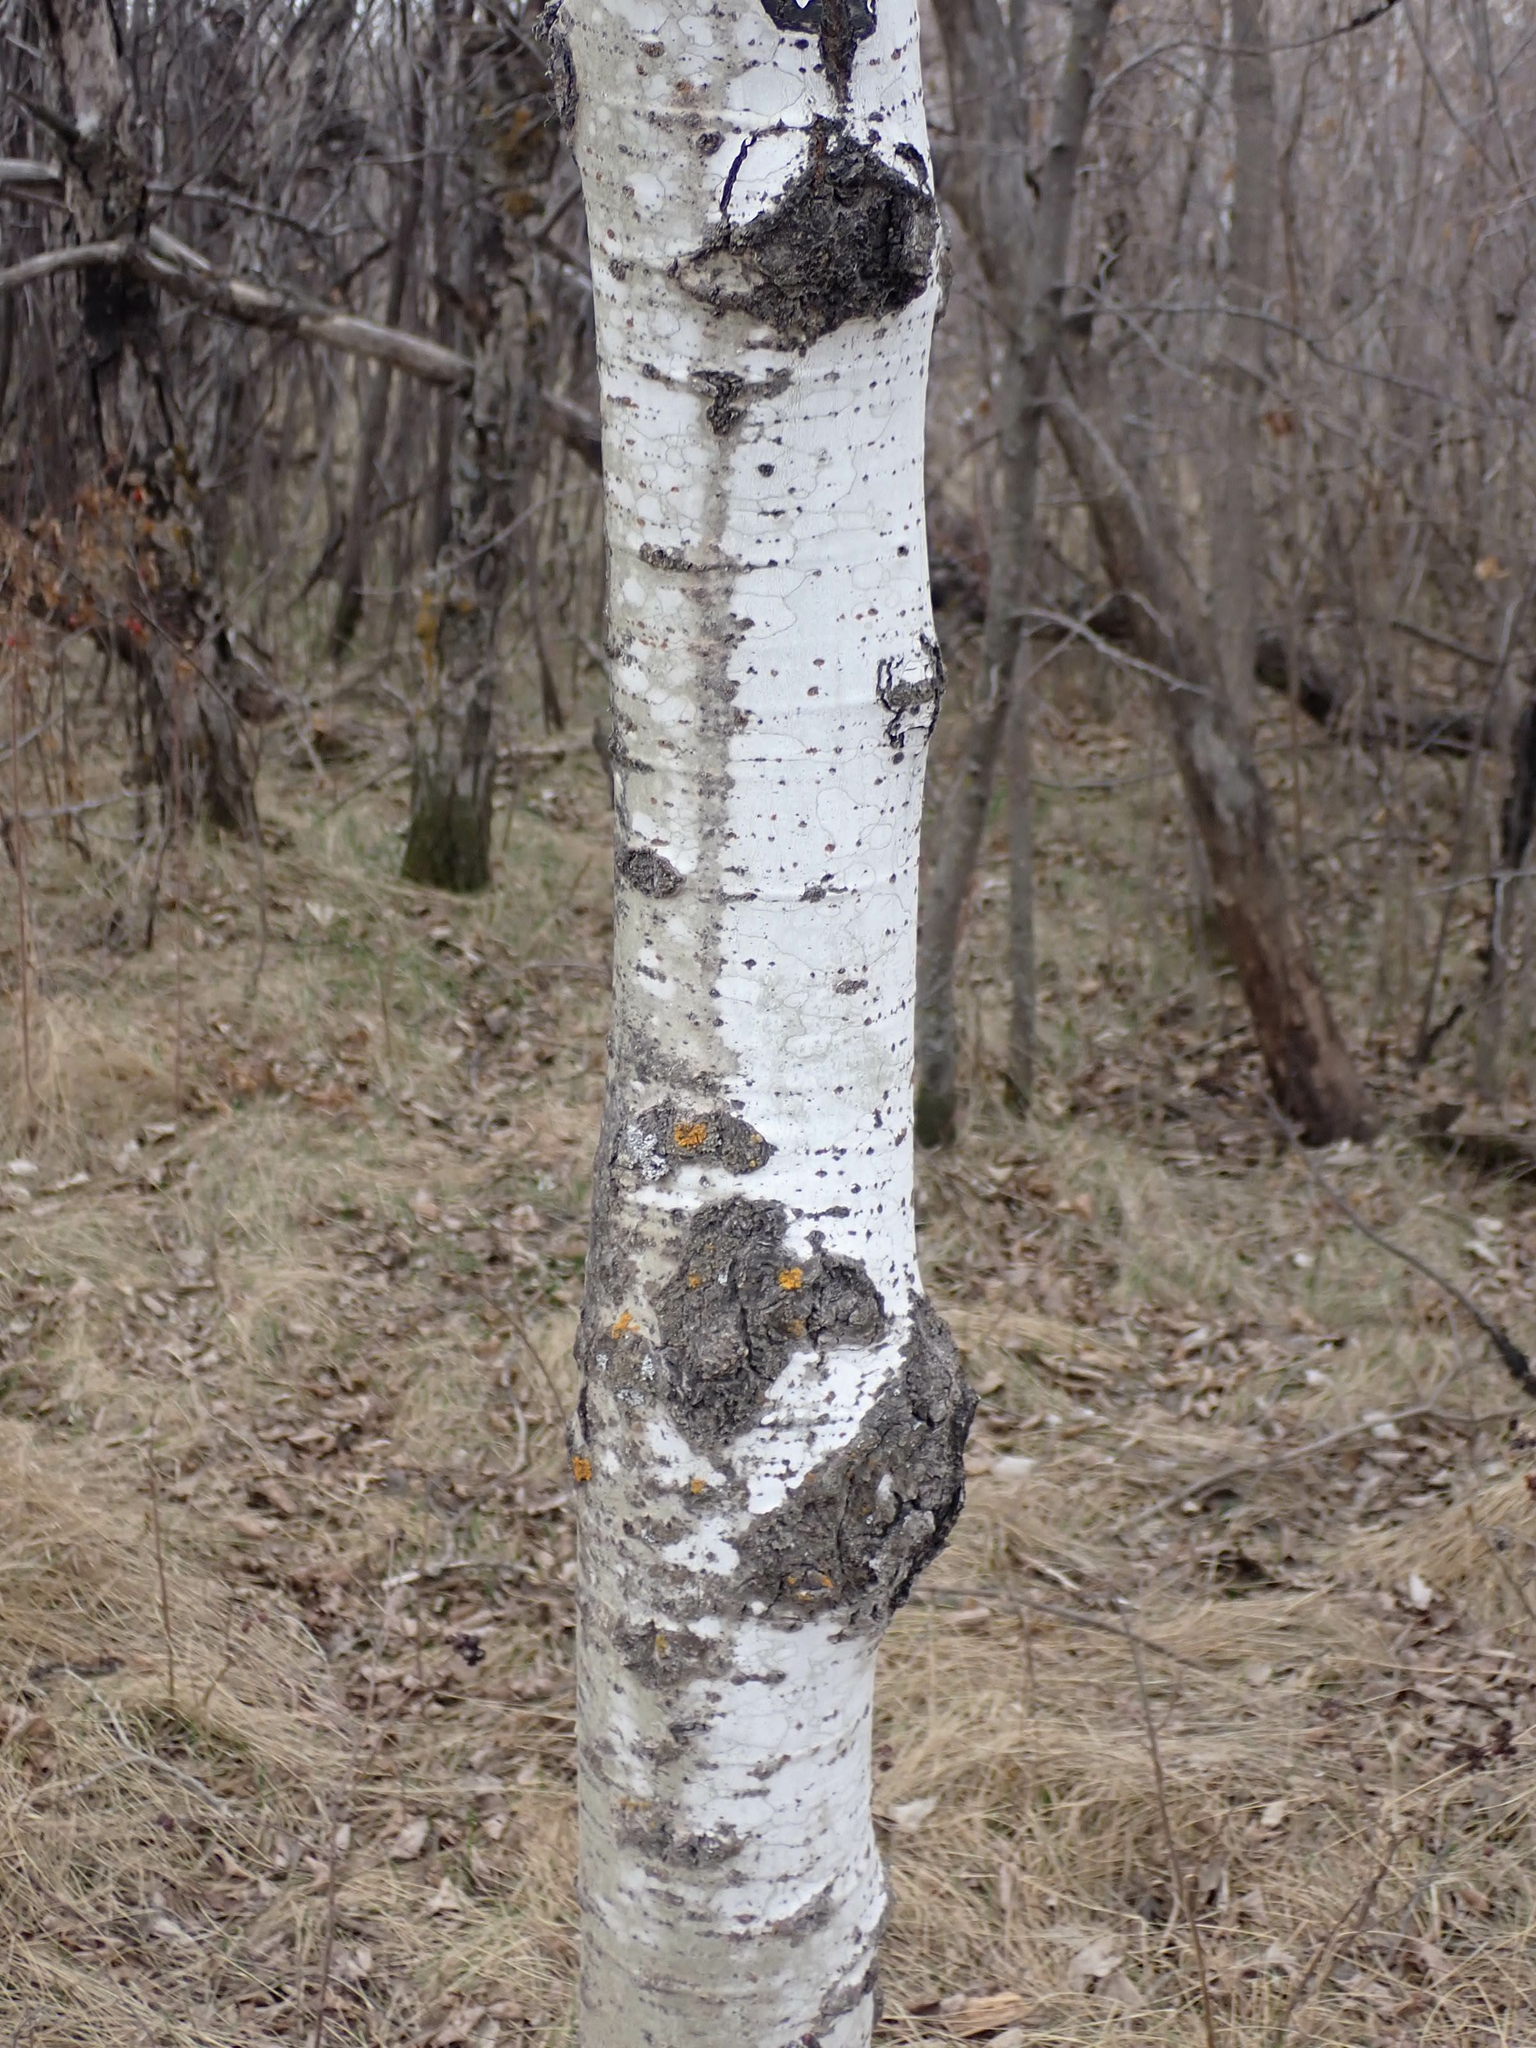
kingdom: Plantae
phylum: Tracheophyta
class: Magnoliopsida
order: Malpighiales
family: Salicaceae
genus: Populus
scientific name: Populus tremuloides
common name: Quaking aspen
